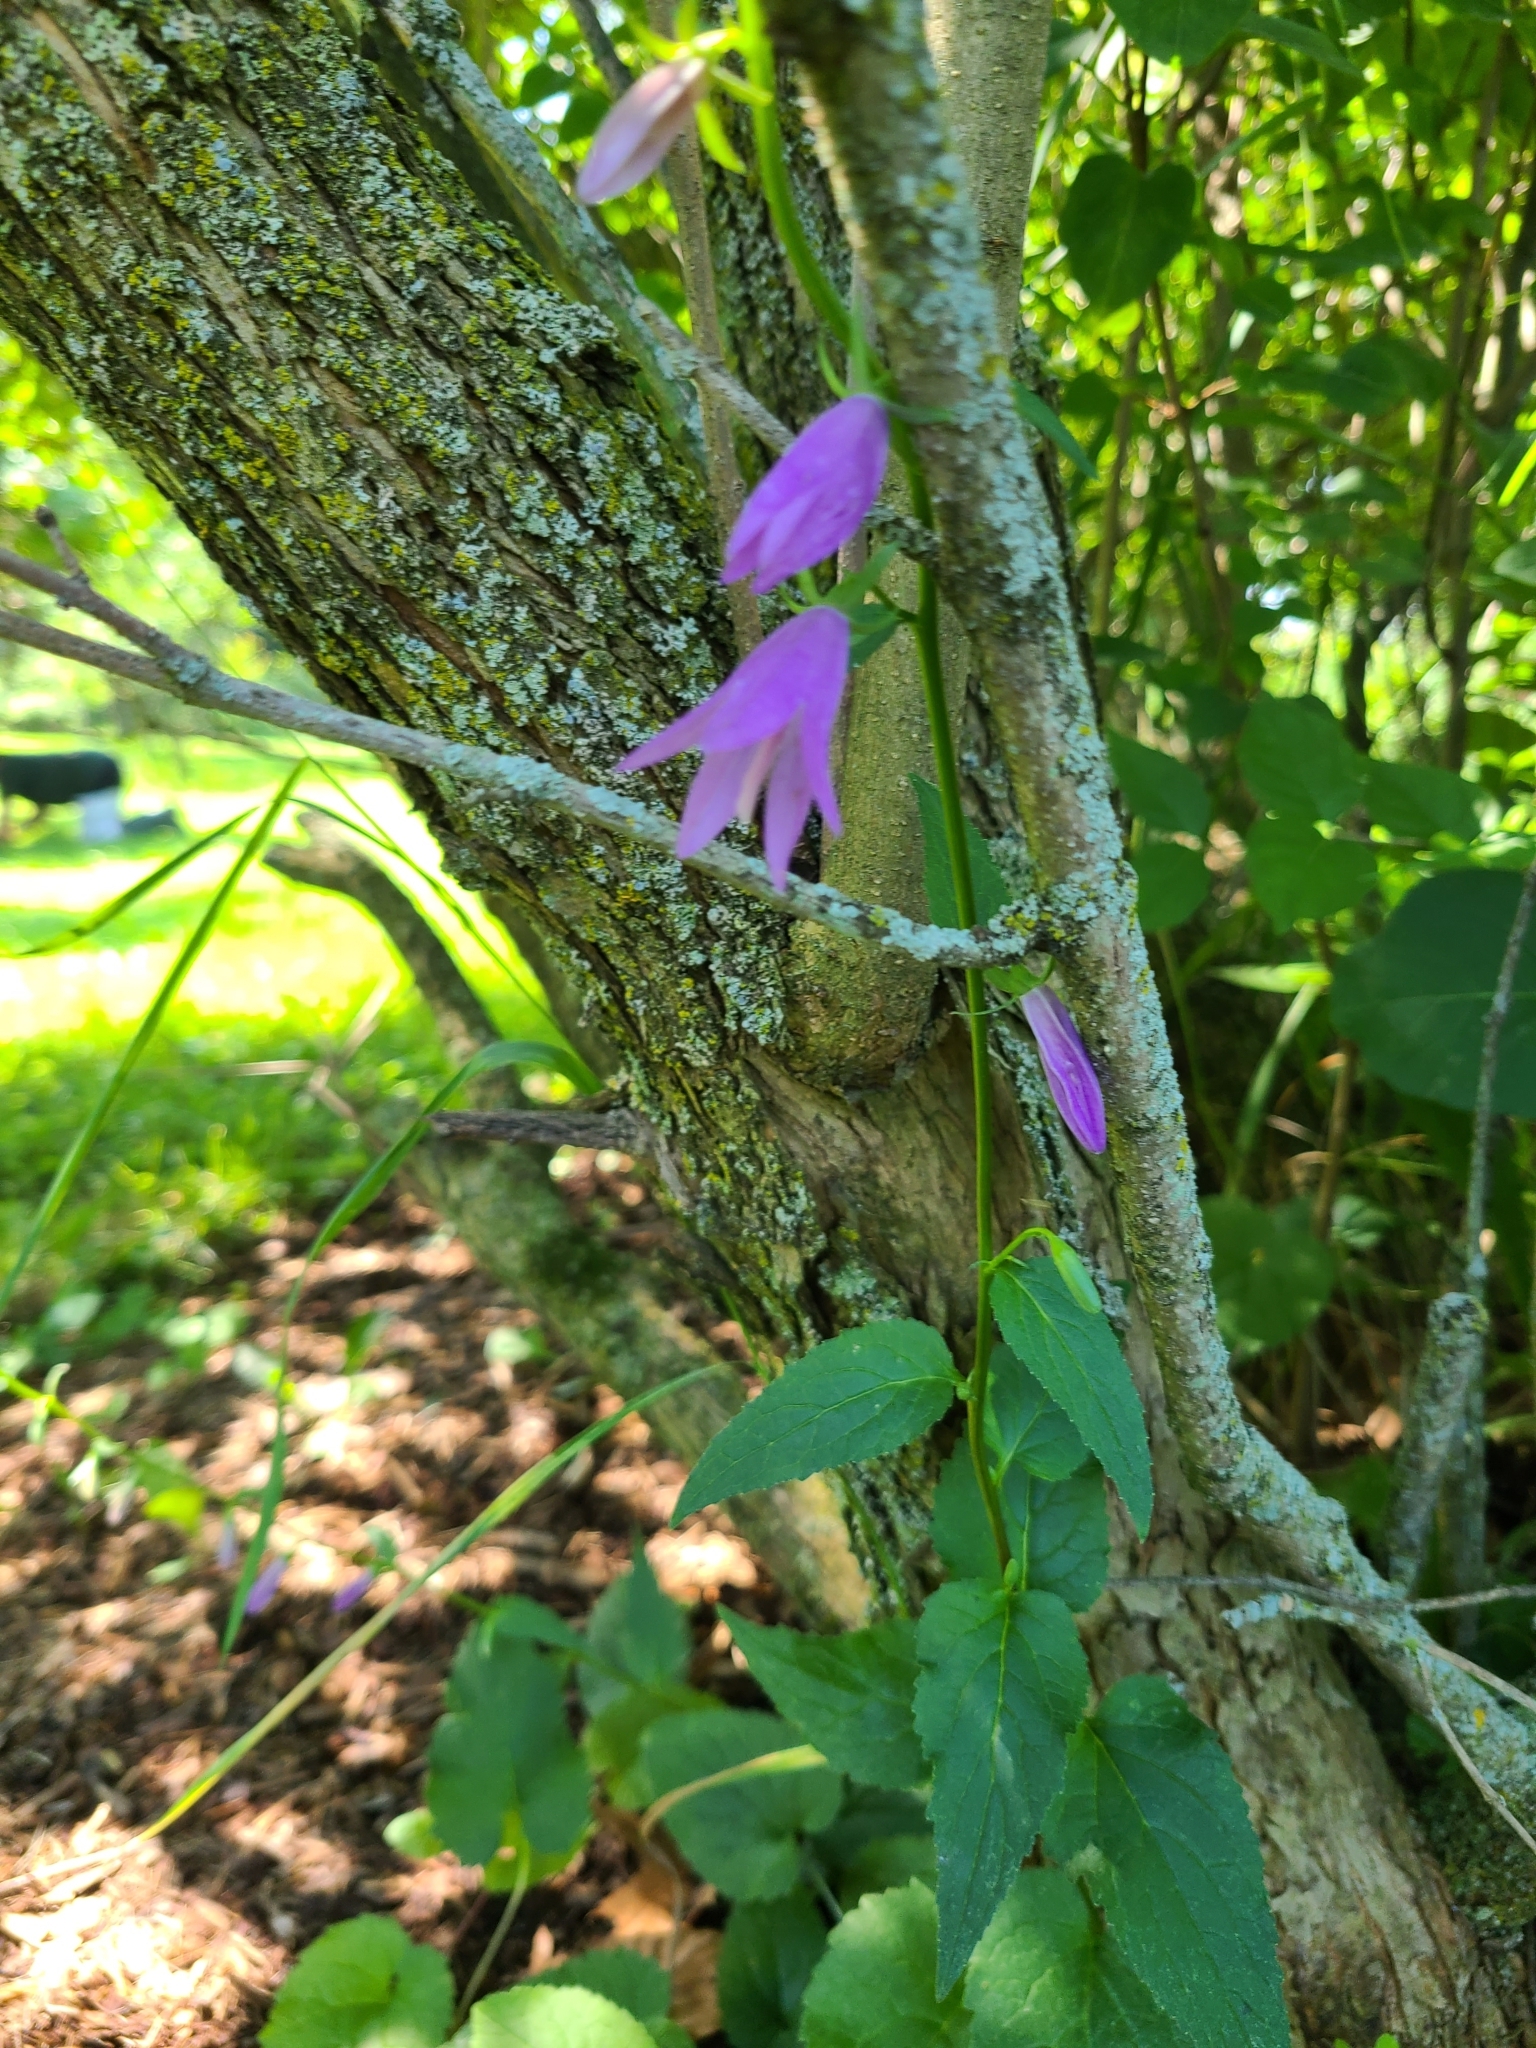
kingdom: Plantae
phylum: Tracheophyta
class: Magnoliopsida
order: Asterales
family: Campanulaceae
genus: Campanula
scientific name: Campanula rapunculoides
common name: Creeping bellflower
